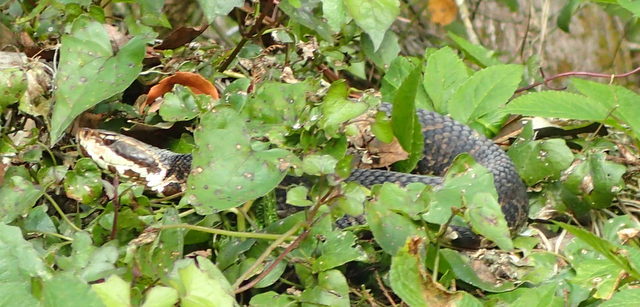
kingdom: Animalia
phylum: Chordata
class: Squamata
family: Viperidae
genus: Agkistrodon
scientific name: Agkistrodon conanti
